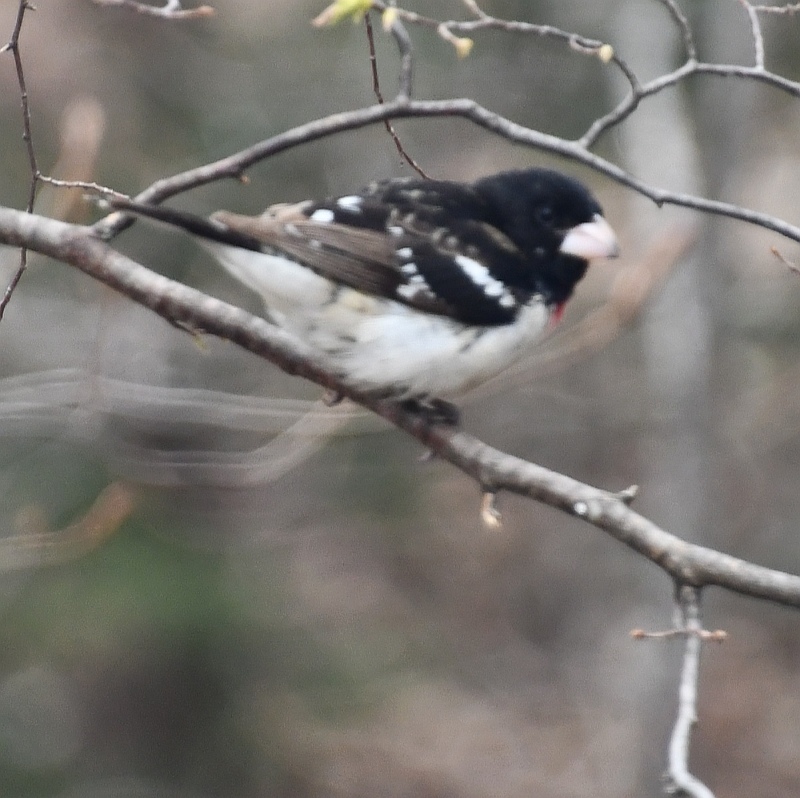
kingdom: Animalia
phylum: Chordata
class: Aves
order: Passeriformes
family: Cardinalidae
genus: Pheucticus
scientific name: Pheucticus ludovicianus
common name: Rose-breasted grosbeak
